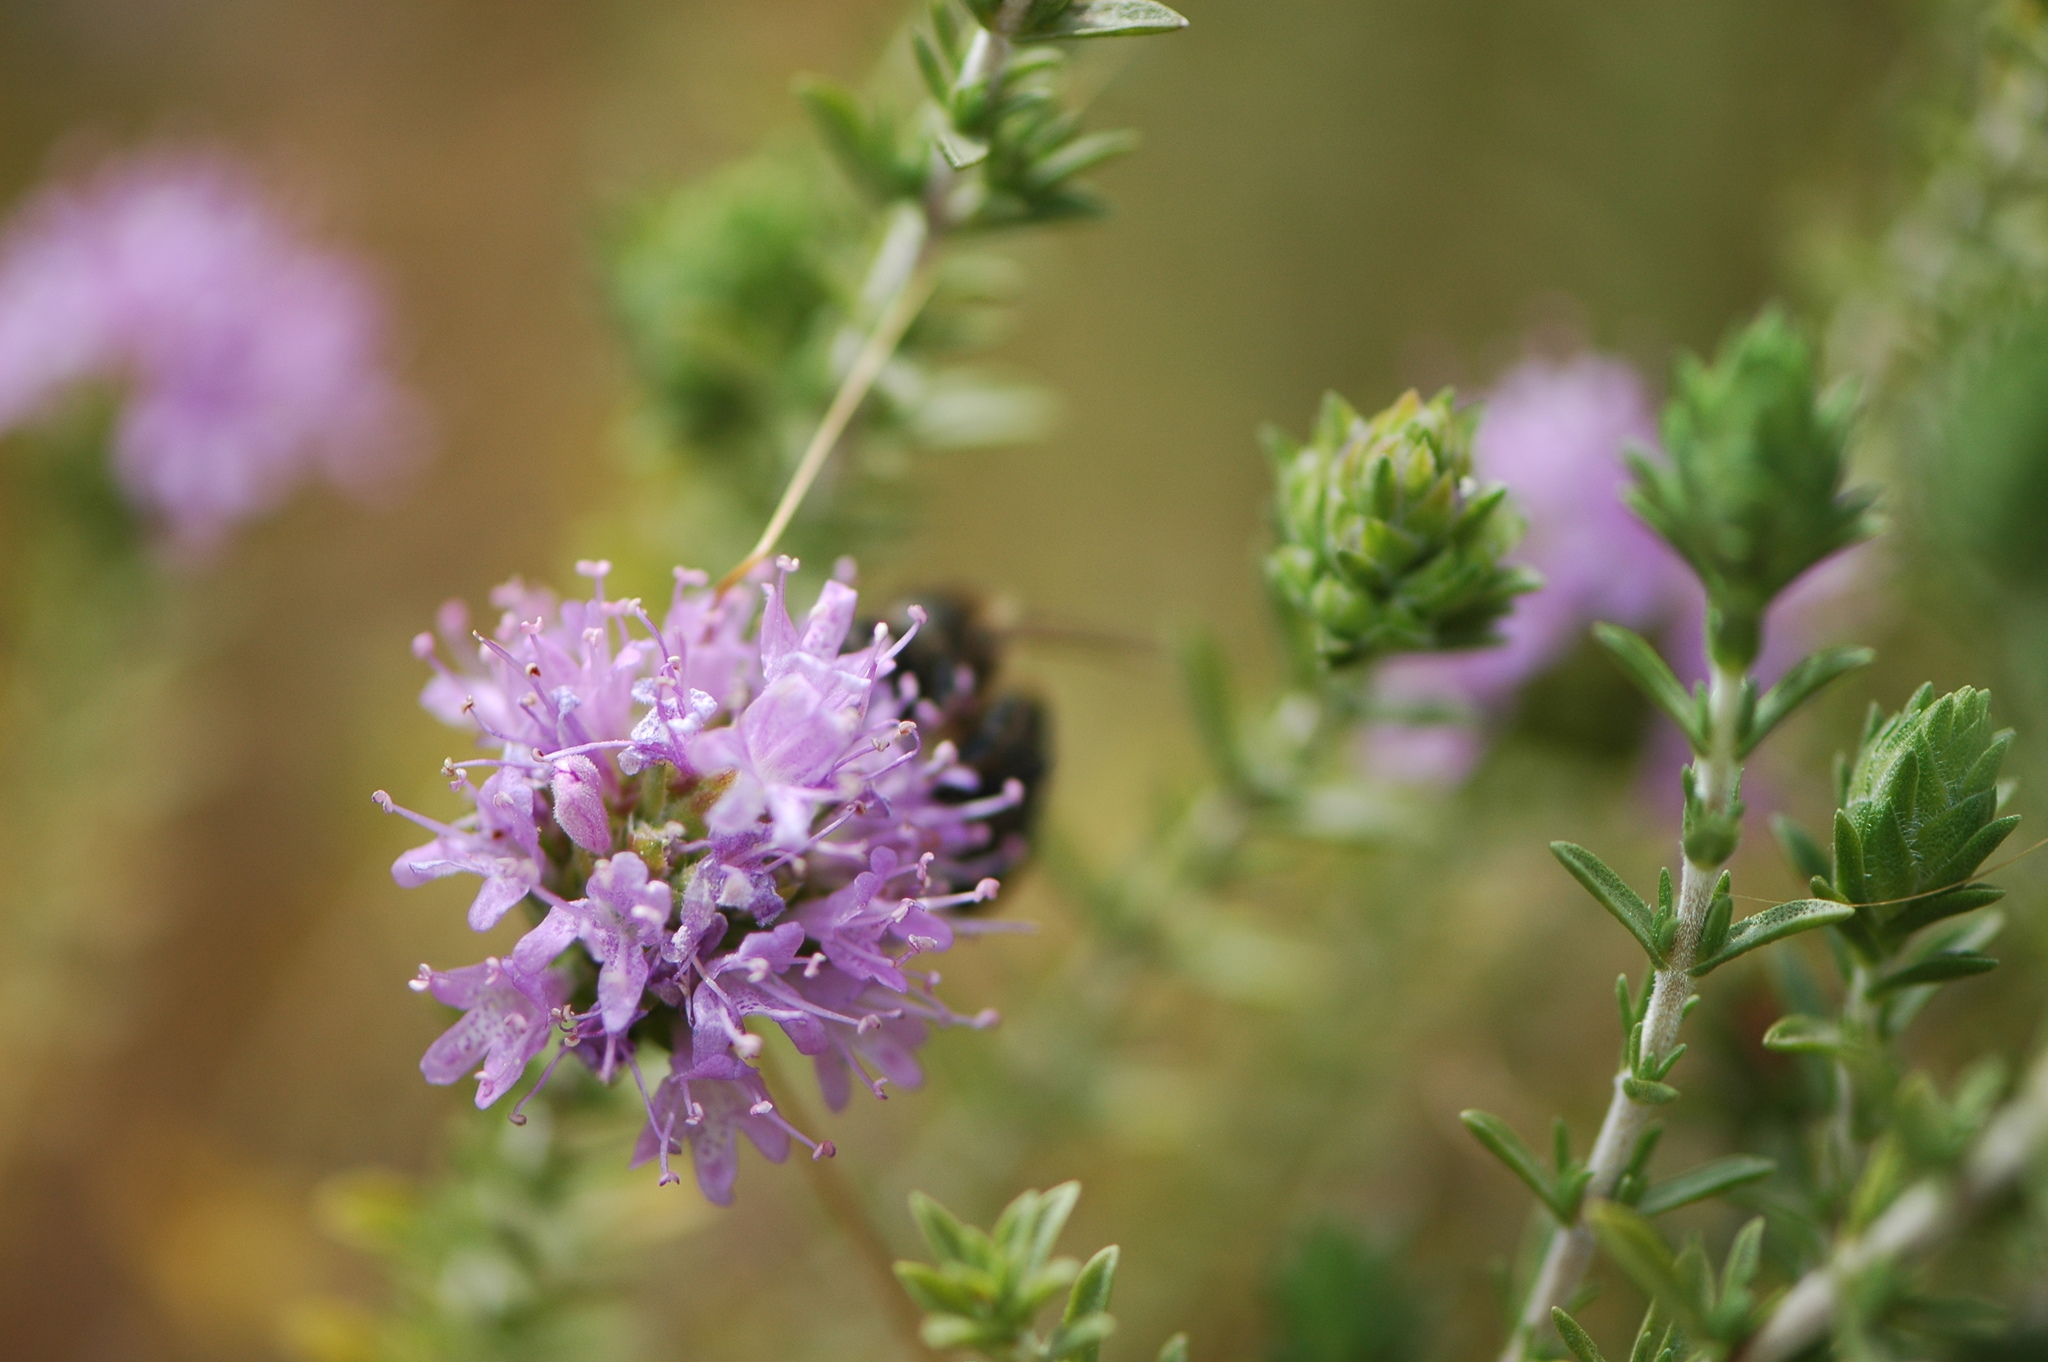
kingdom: Plantae
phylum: Tracheophyta
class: Magnoliopsida
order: Lamiales
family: Lamiaceae
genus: Thymbra
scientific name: Thymbra capitata
